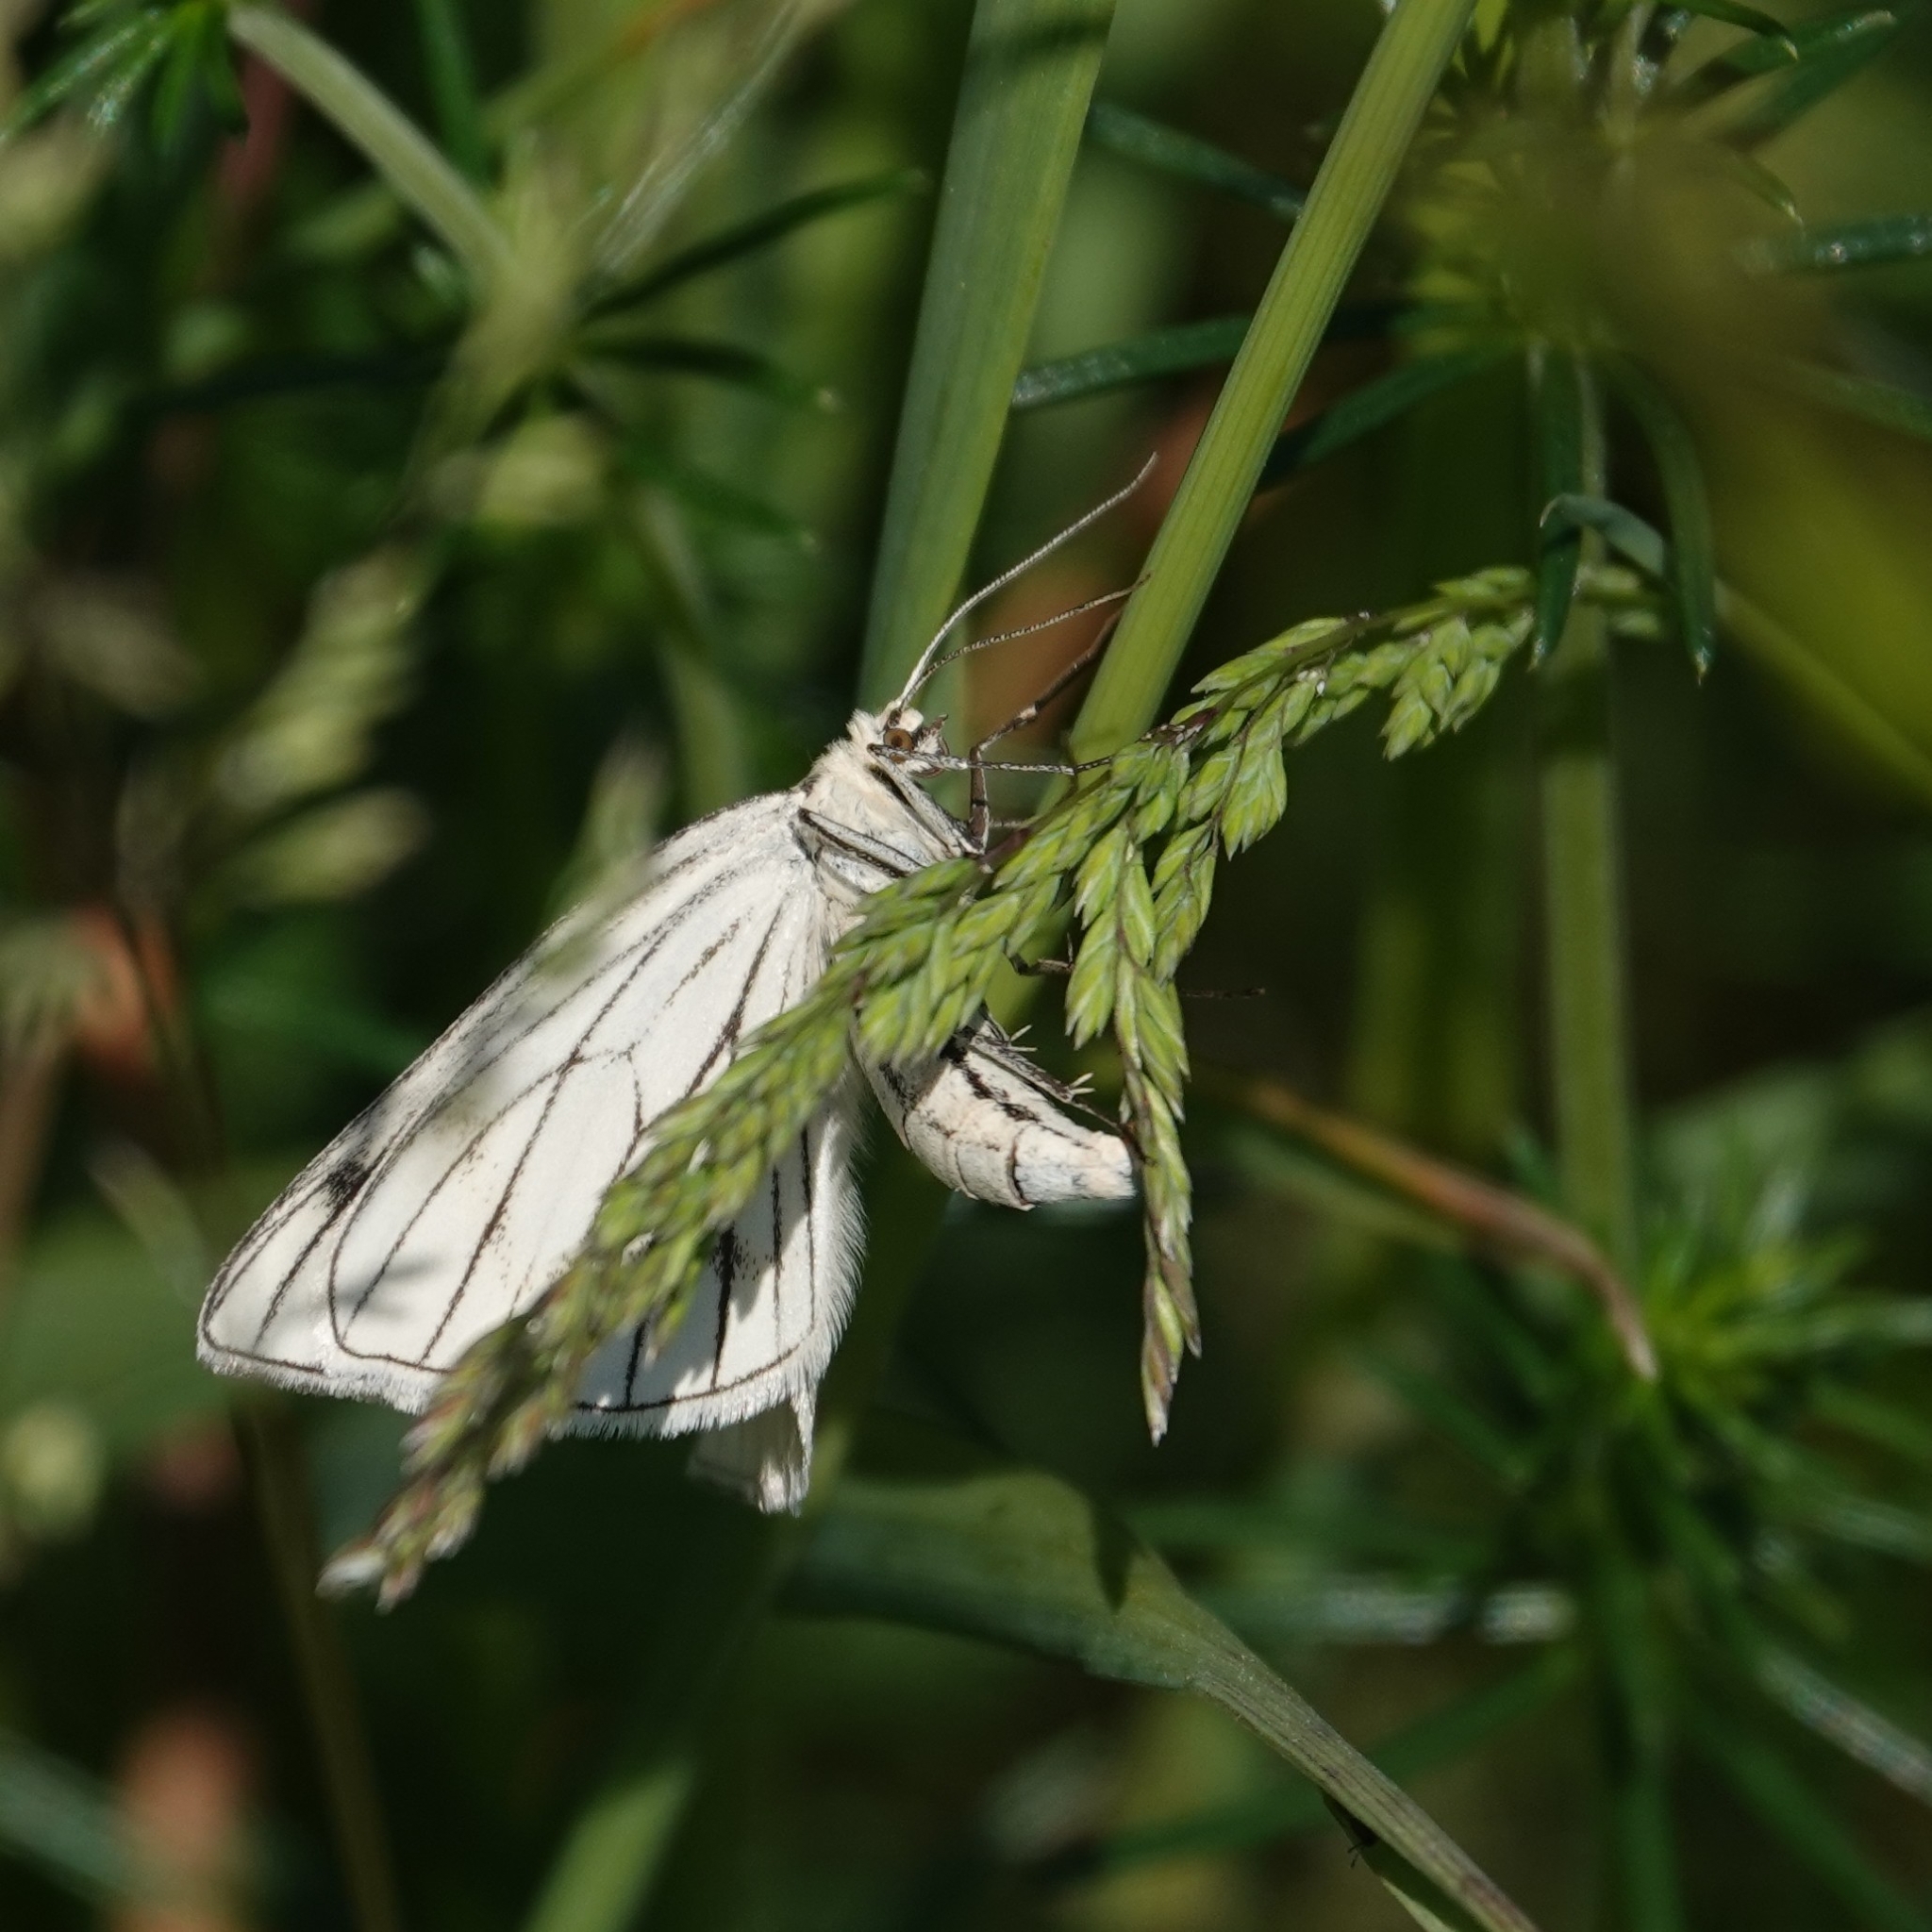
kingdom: Animalia
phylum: Arthropoda
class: Insecta
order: Lepidoptera
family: Geometridae
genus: Siona
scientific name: Siona lineata
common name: Black-veined moth
